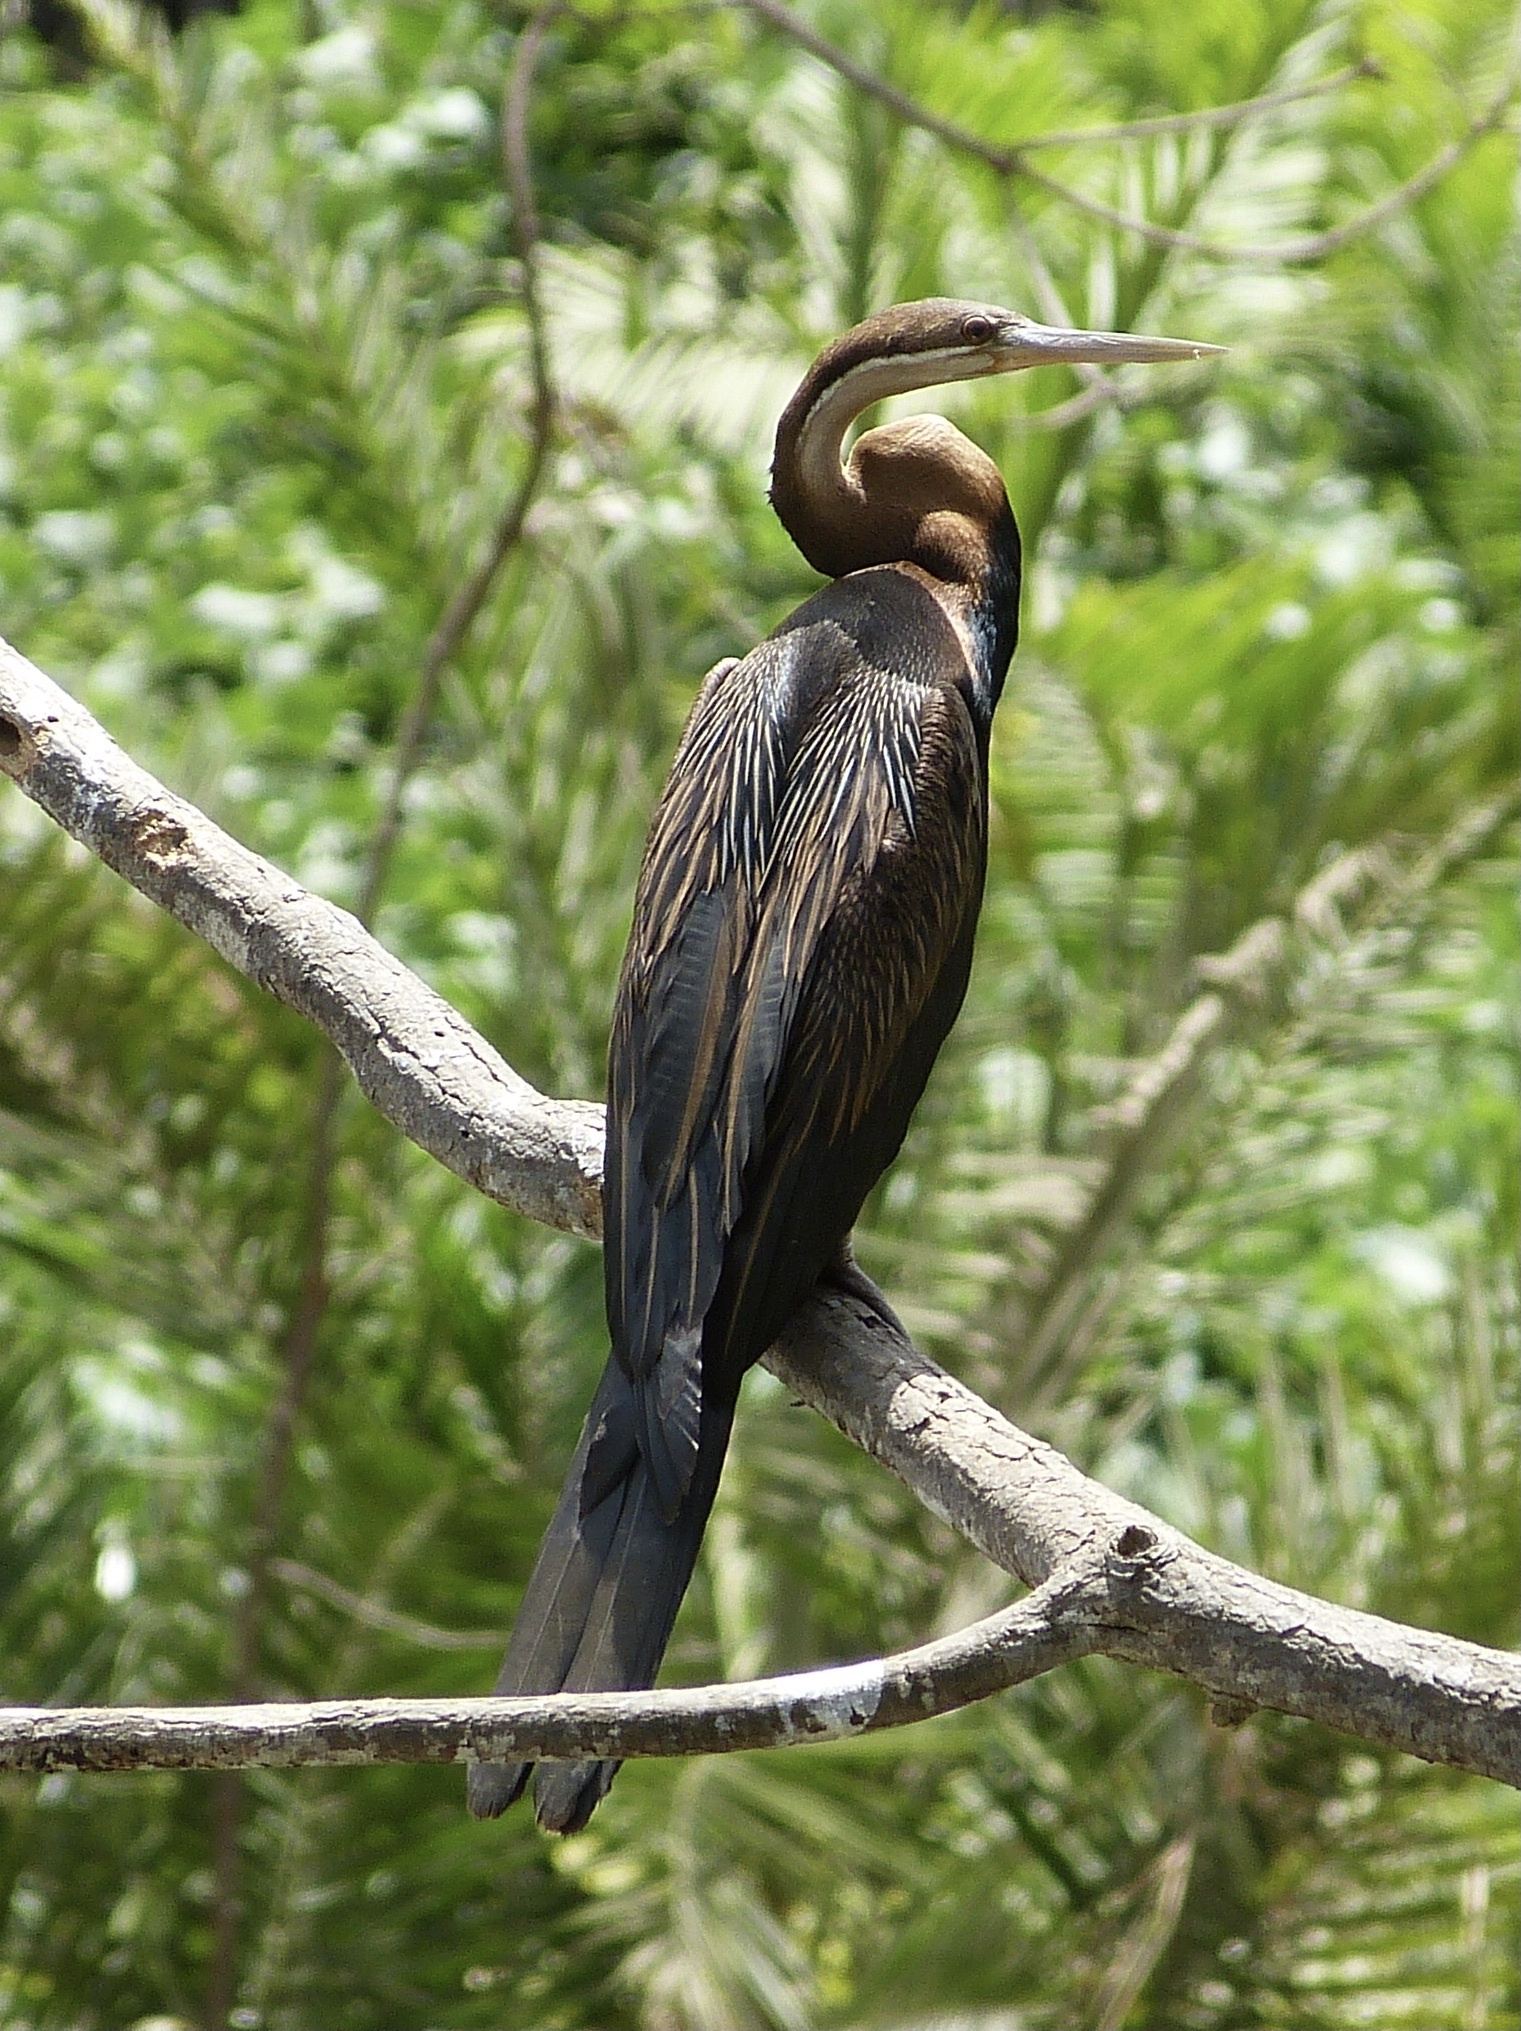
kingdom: Animalia
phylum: Chordata
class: Aves
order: Suliformes
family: Anhingidae
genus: Anhinga
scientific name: Anhinga rufa
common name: African darter
